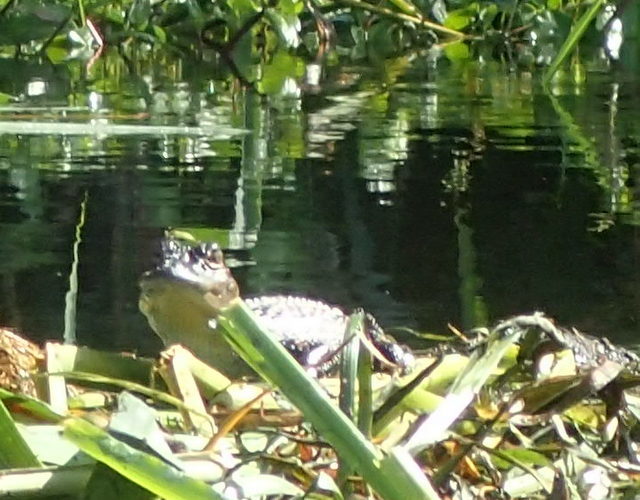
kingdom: Animalia
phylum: Chordata
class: Crocodylia
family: Alligatoridae
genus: Alligator
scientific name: Alligator mississippiensis
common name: American alligator
